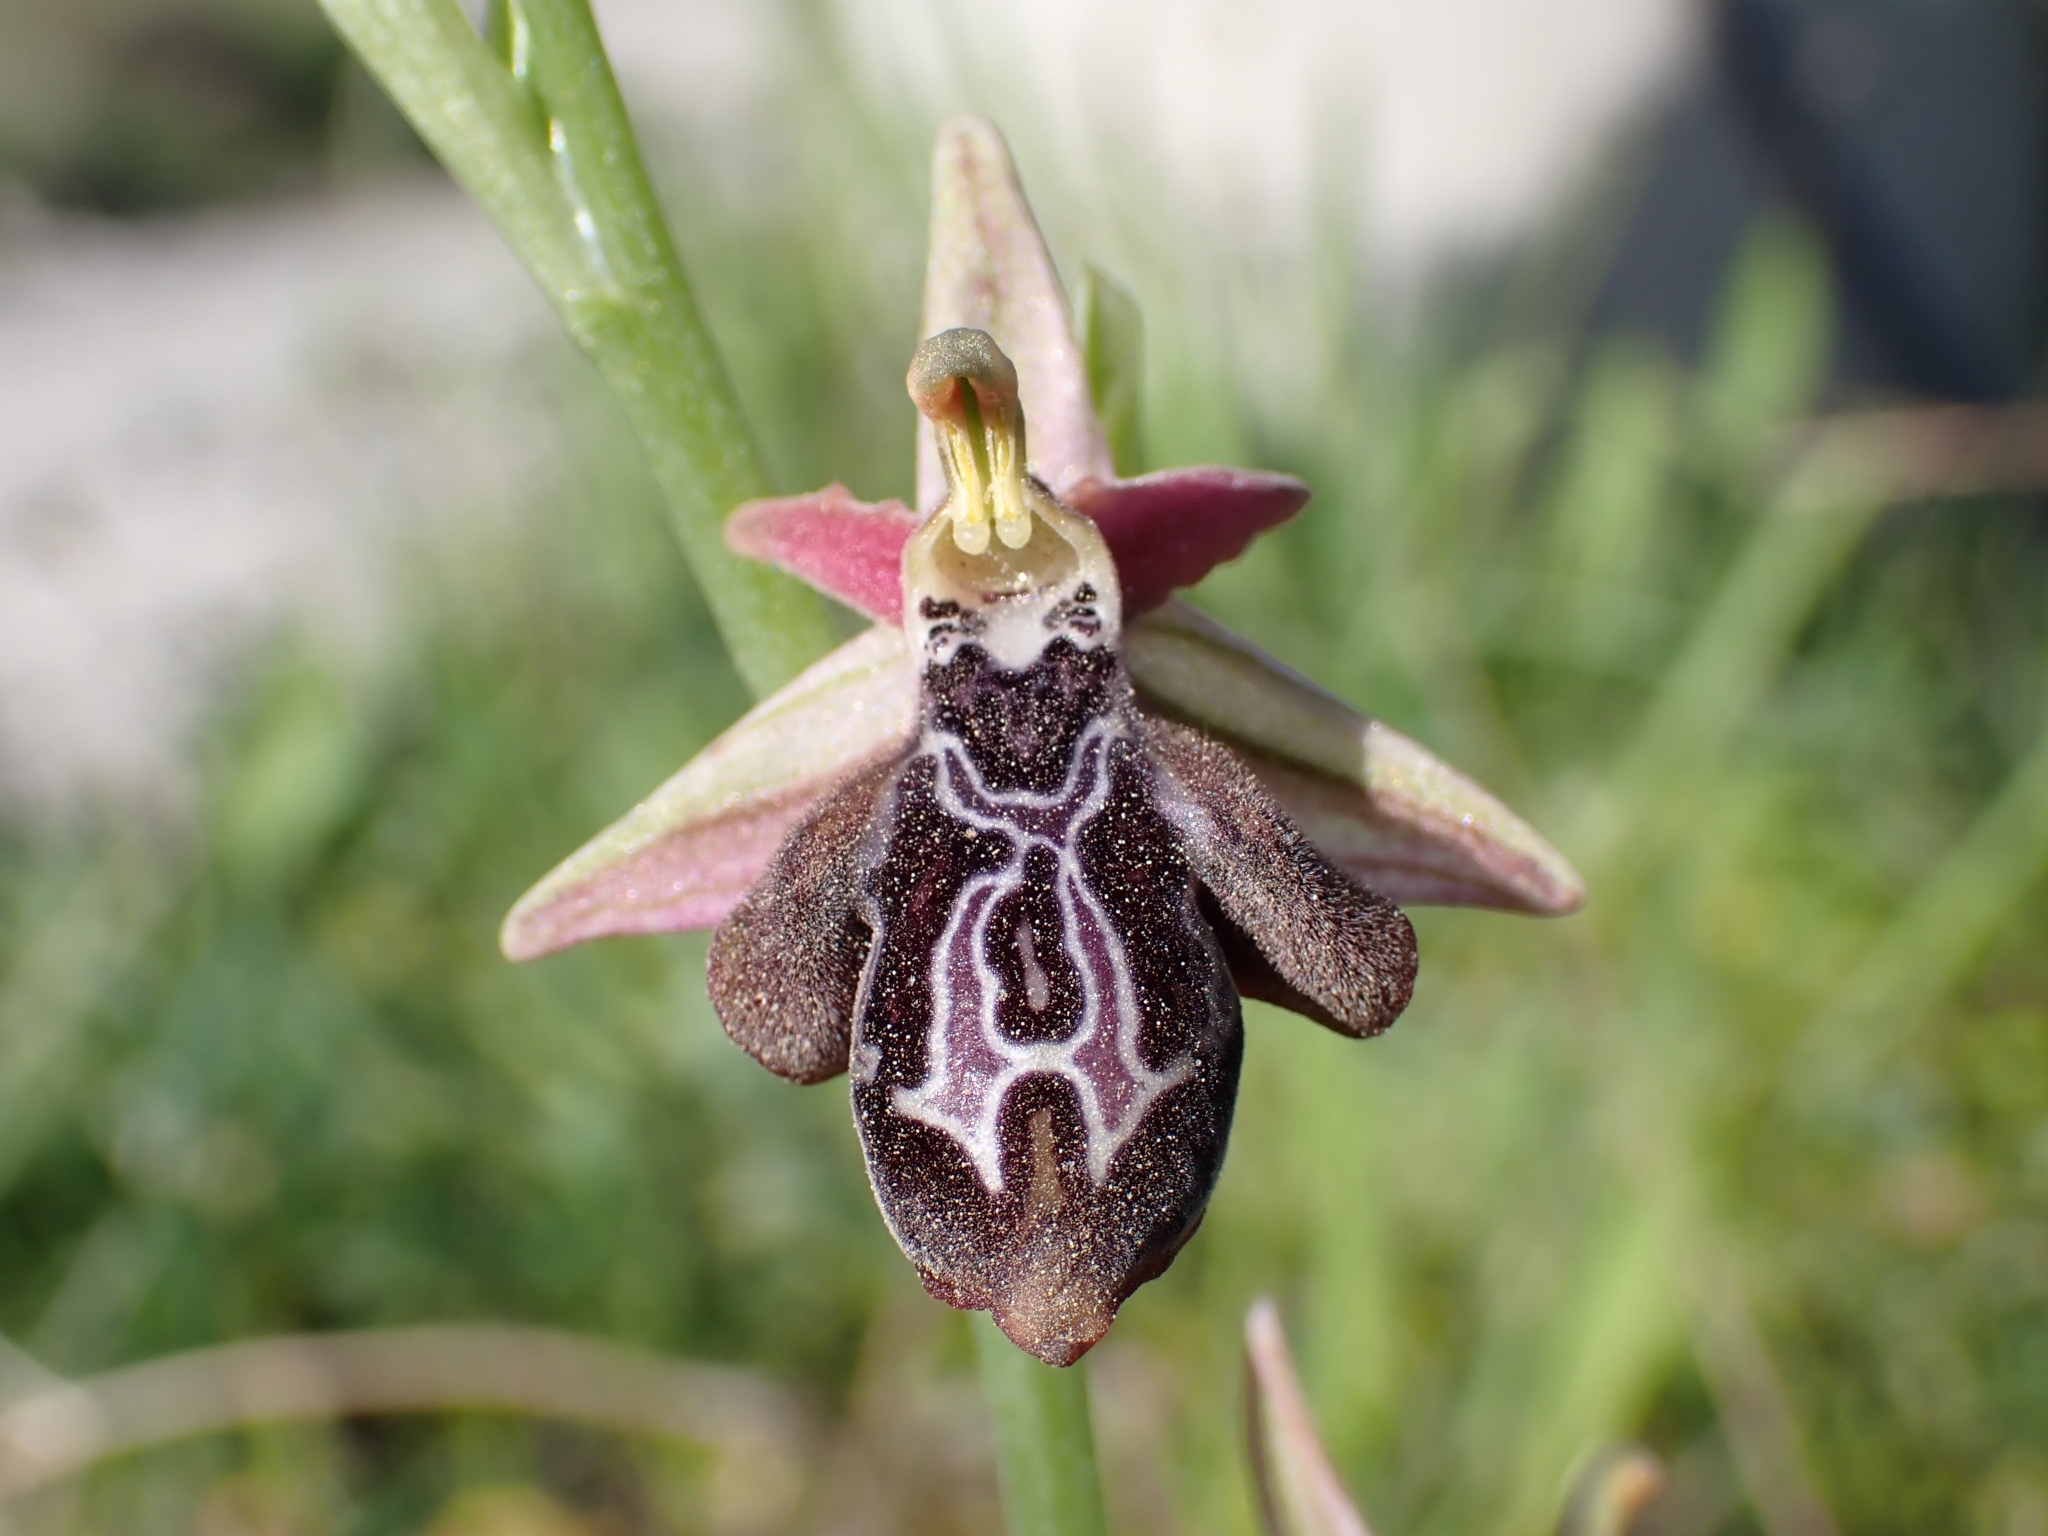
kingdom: Plantae
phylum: Tracheophyta
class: Liliopsida
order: Asparagales
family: Orchidaceae
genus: Ophrys
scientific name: Ophrys cretica
